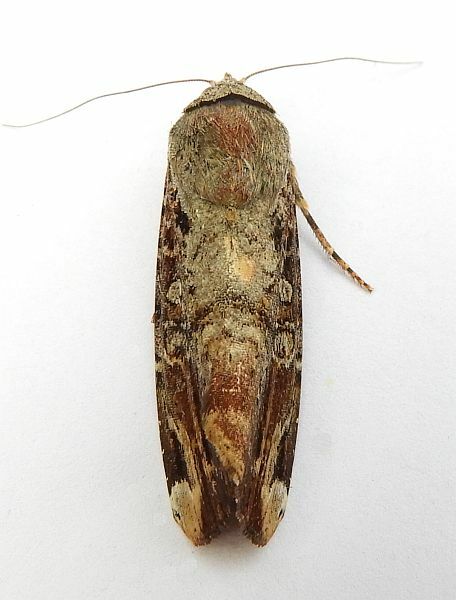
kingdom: Animalia
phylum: Arthropoda
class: Insecta
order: Lepidoptera
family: Noctuidae
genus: Magusa
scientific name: Magusa divaricata
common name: Orb narrow-winged moth
